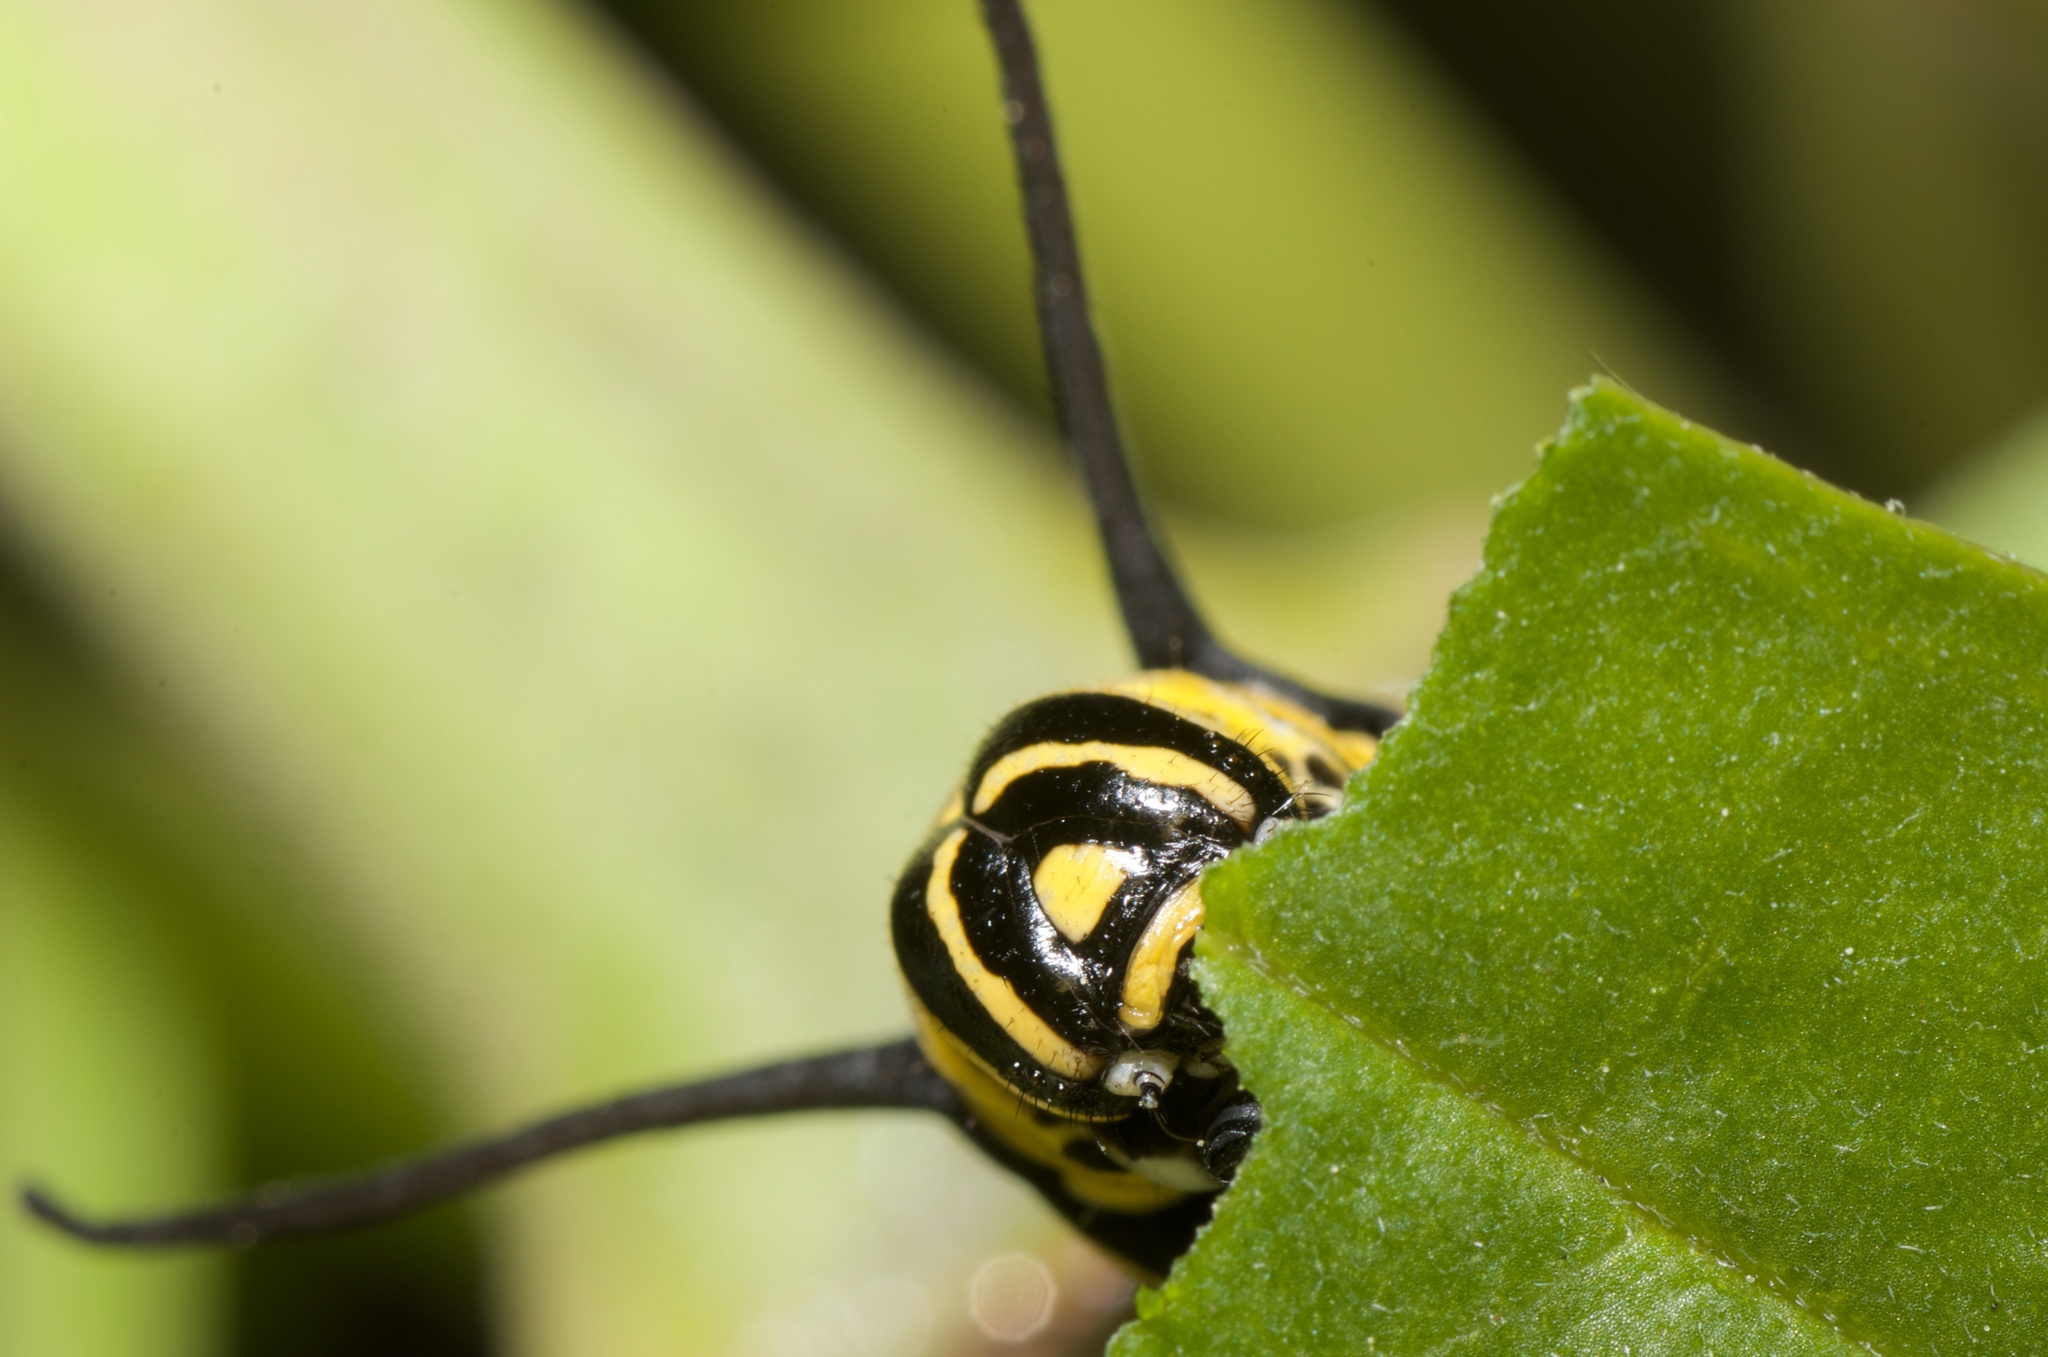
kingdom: Animalia
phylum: Arthropoda
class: Insecta
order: Lepidoptera
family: Nymphalidae
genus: Danaus
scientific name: Danaus plexippus
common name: Monarch
